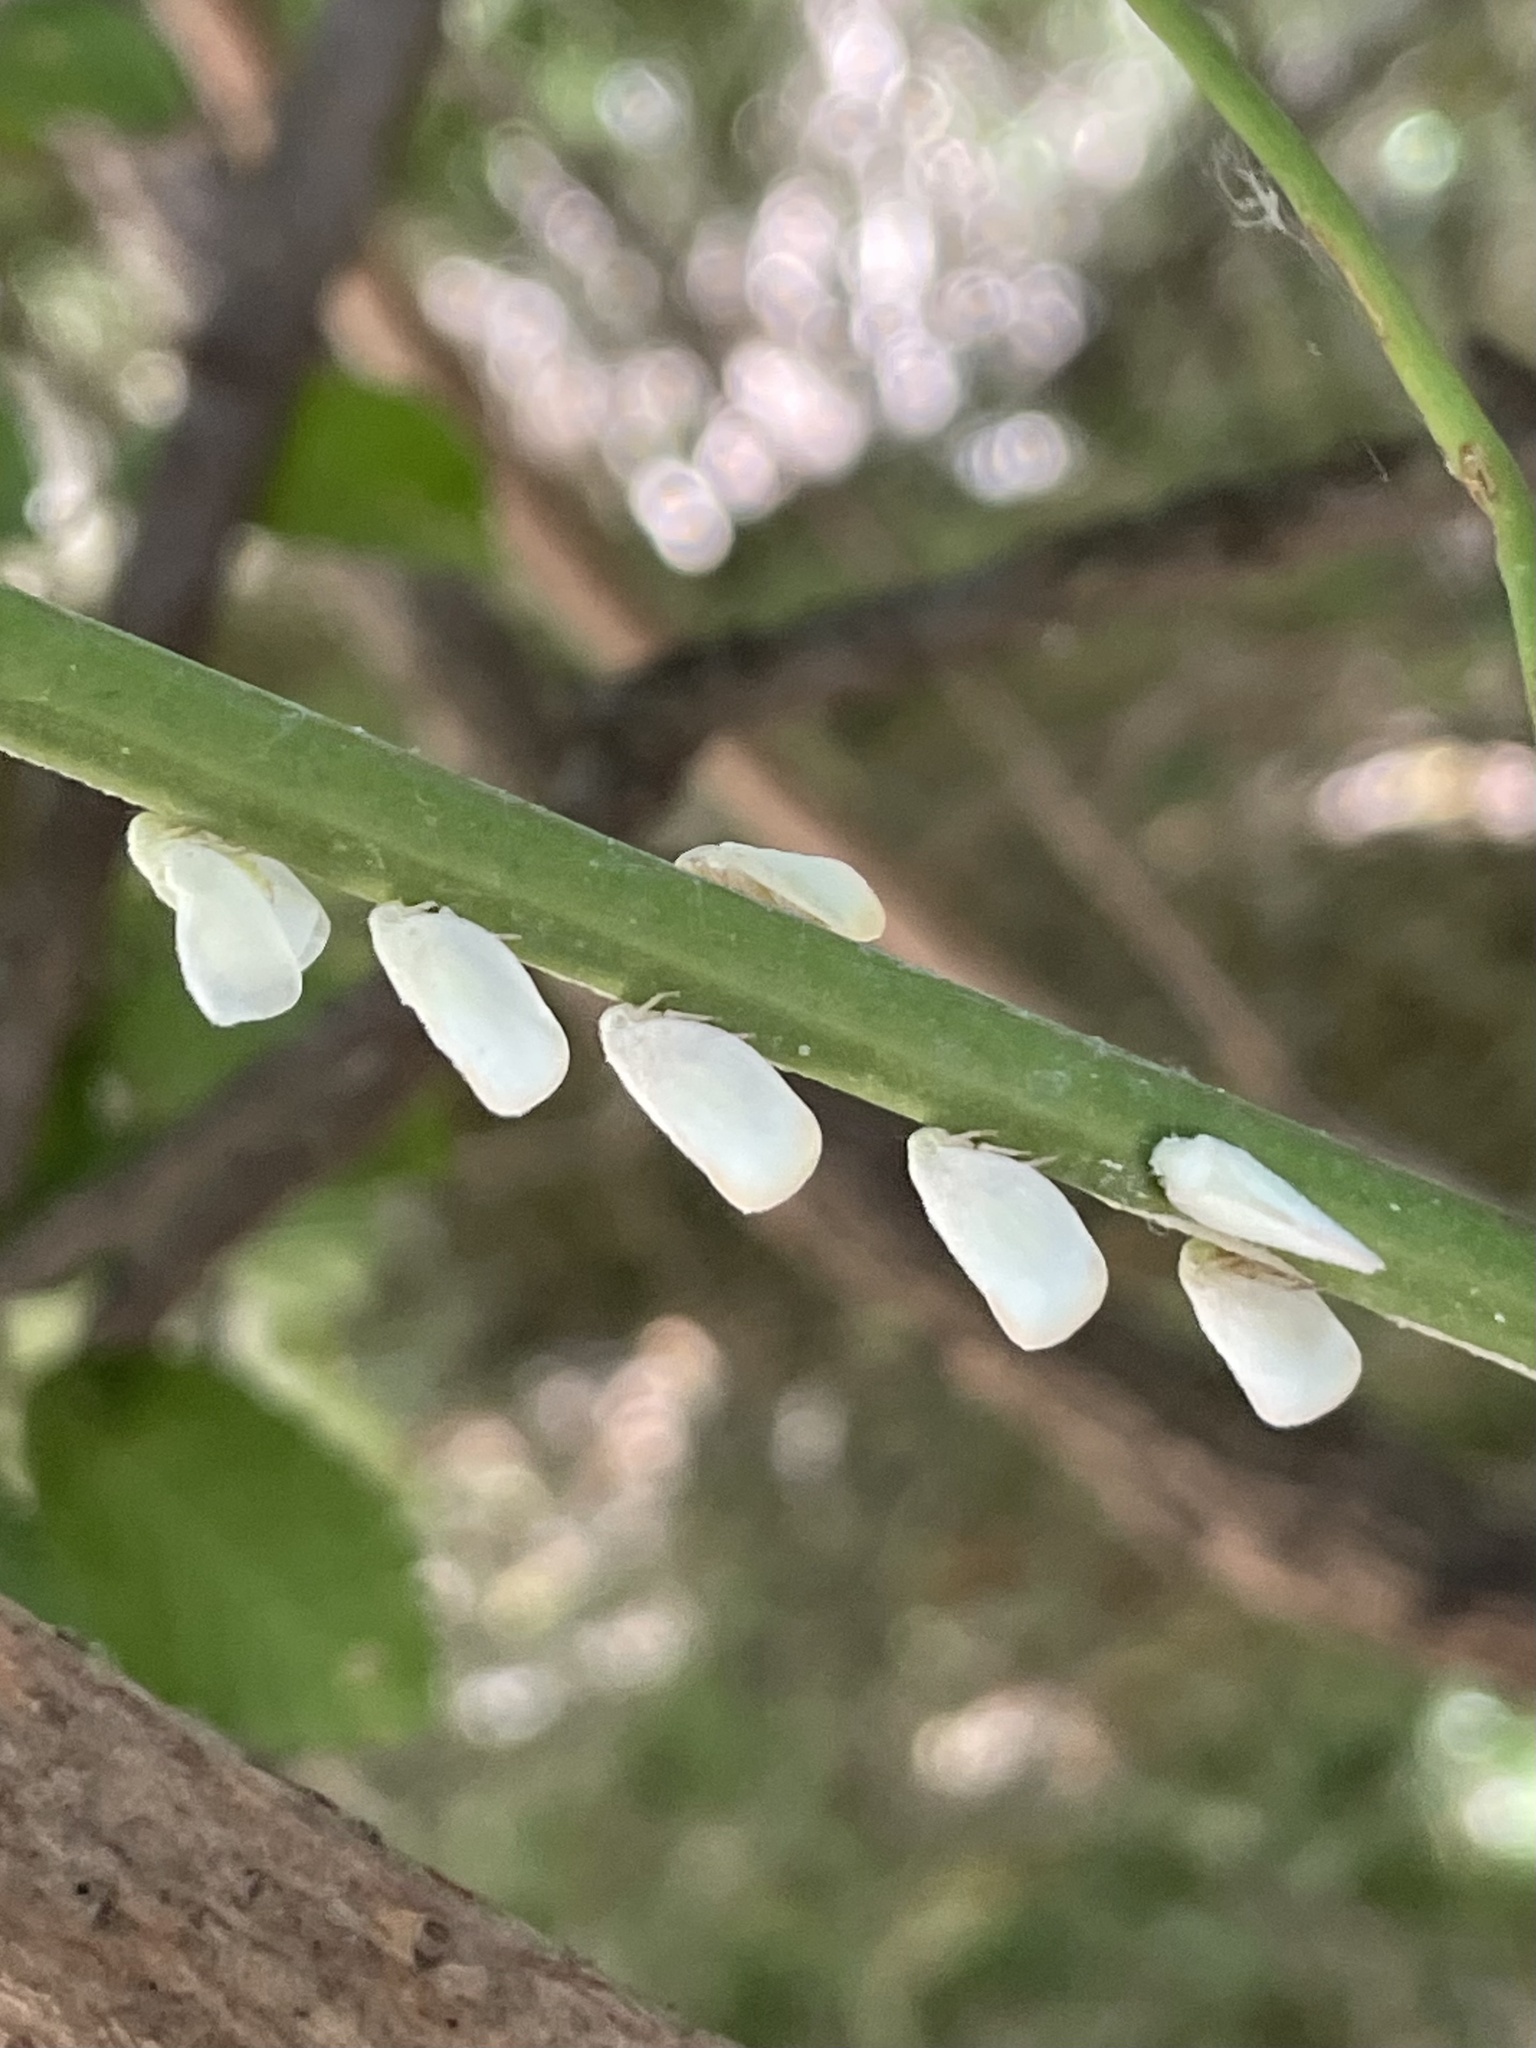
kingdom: Animalia
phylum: Arthropoda
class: Insecta
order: Hemiptera
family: Flatidae
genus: Ormenoides
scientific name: Ormenoides venusta
